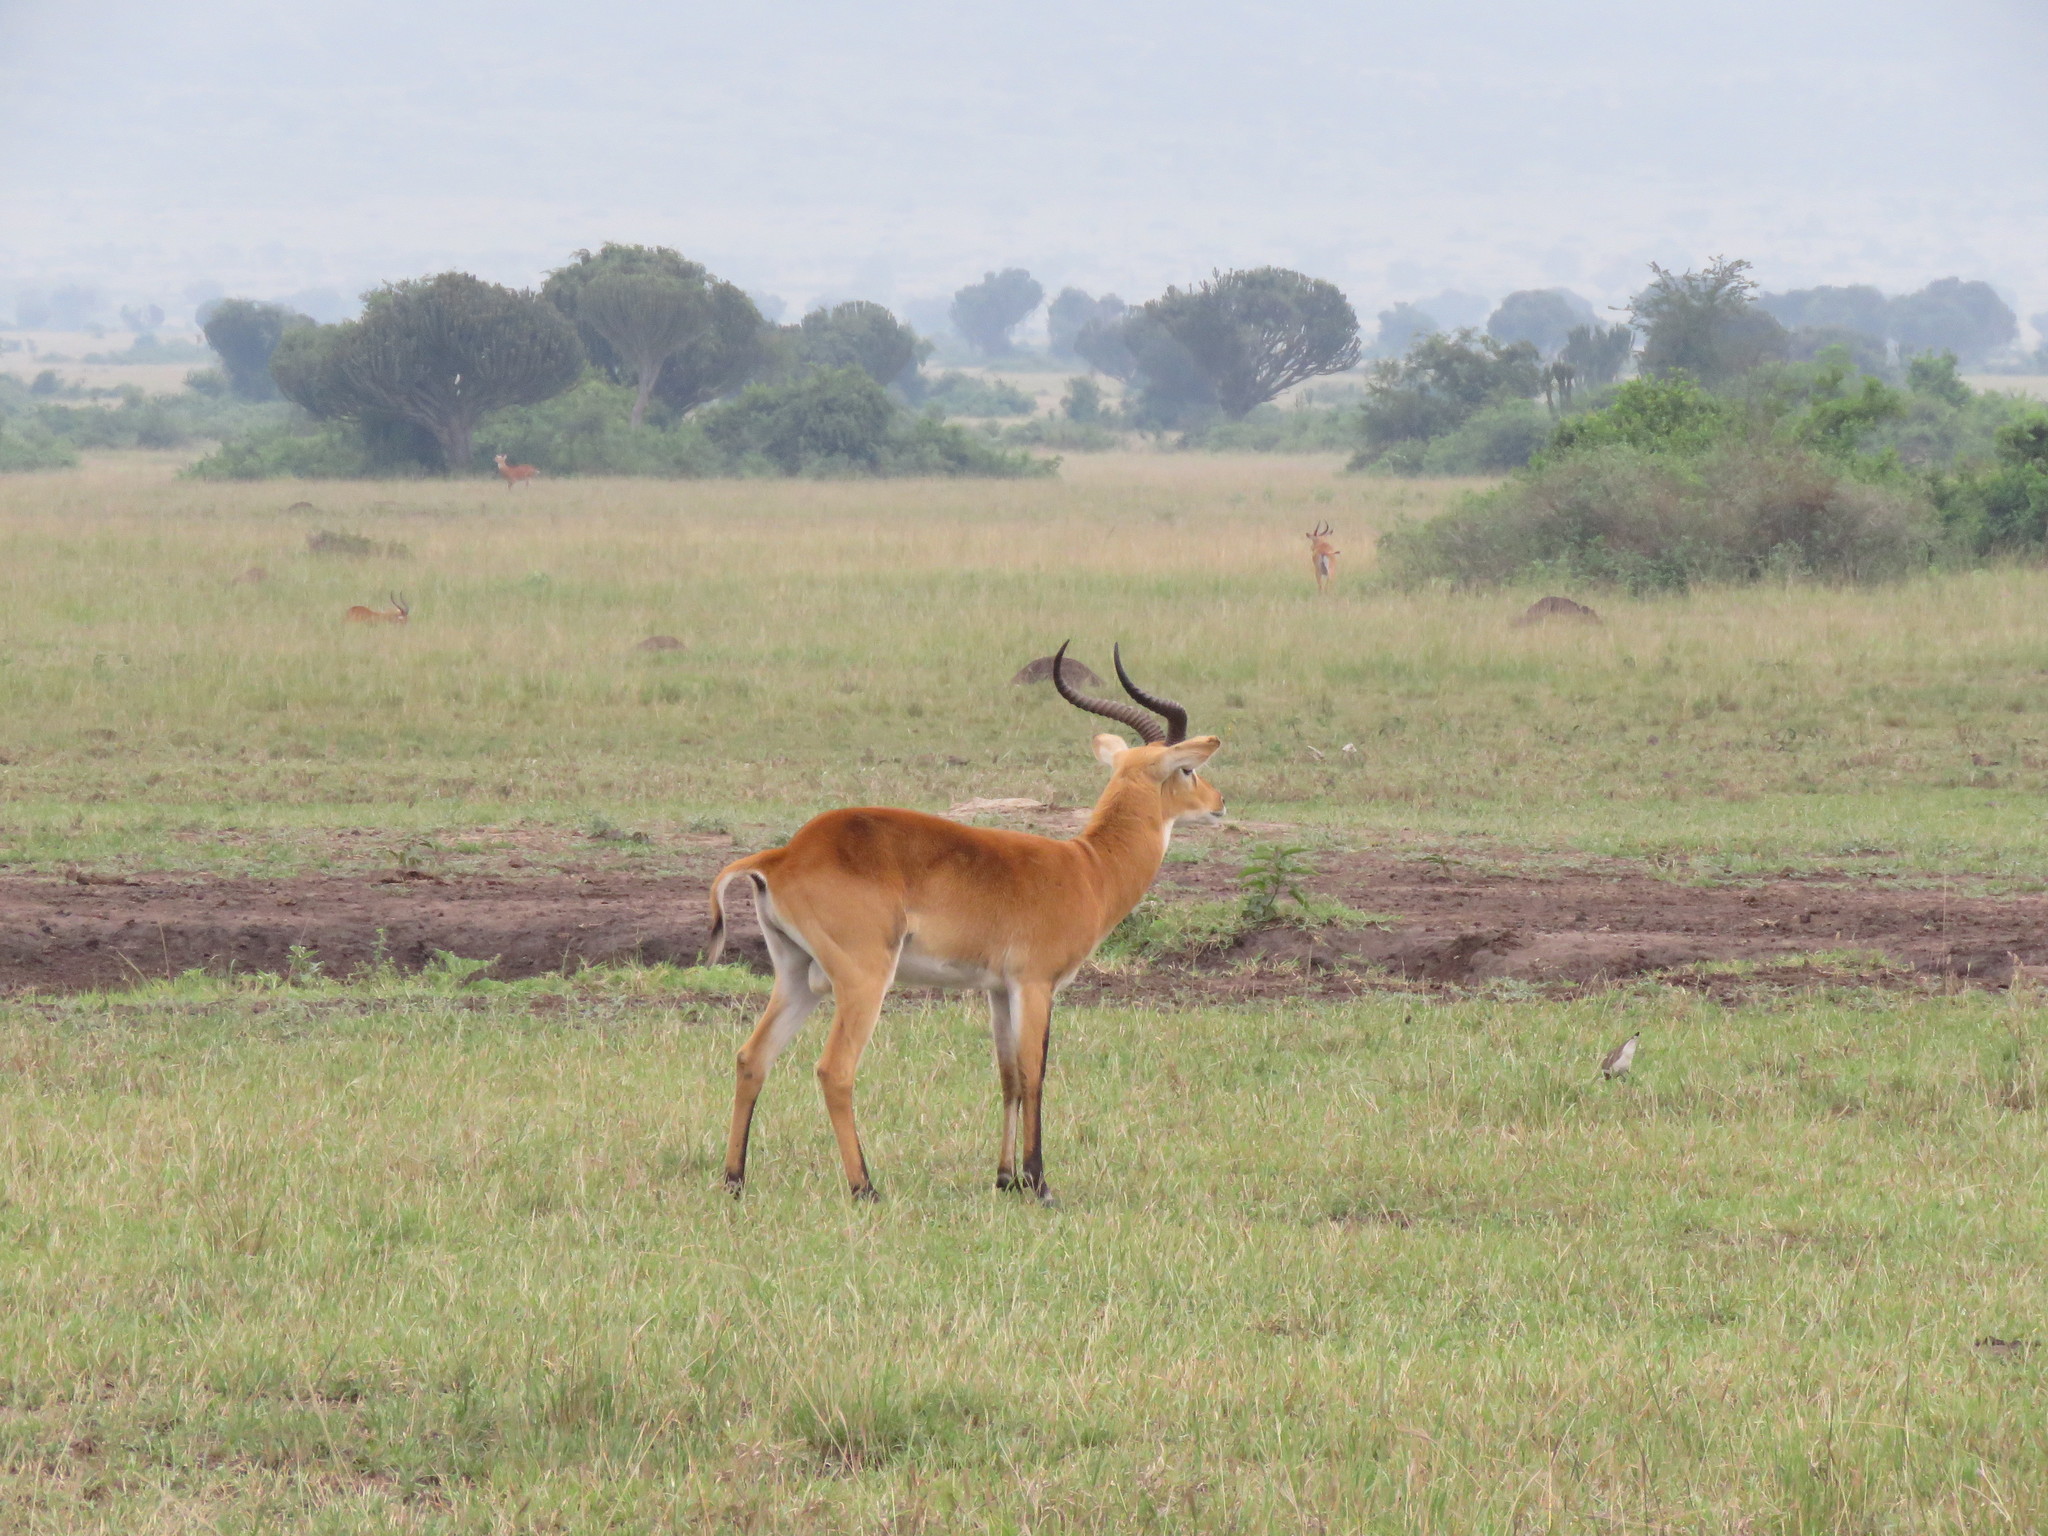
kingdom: Animalia
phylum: Chordata
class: Mammalia
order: Artiodactyla
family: Bovidae
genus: Kobus
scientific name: Kobus kob
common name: Kob
